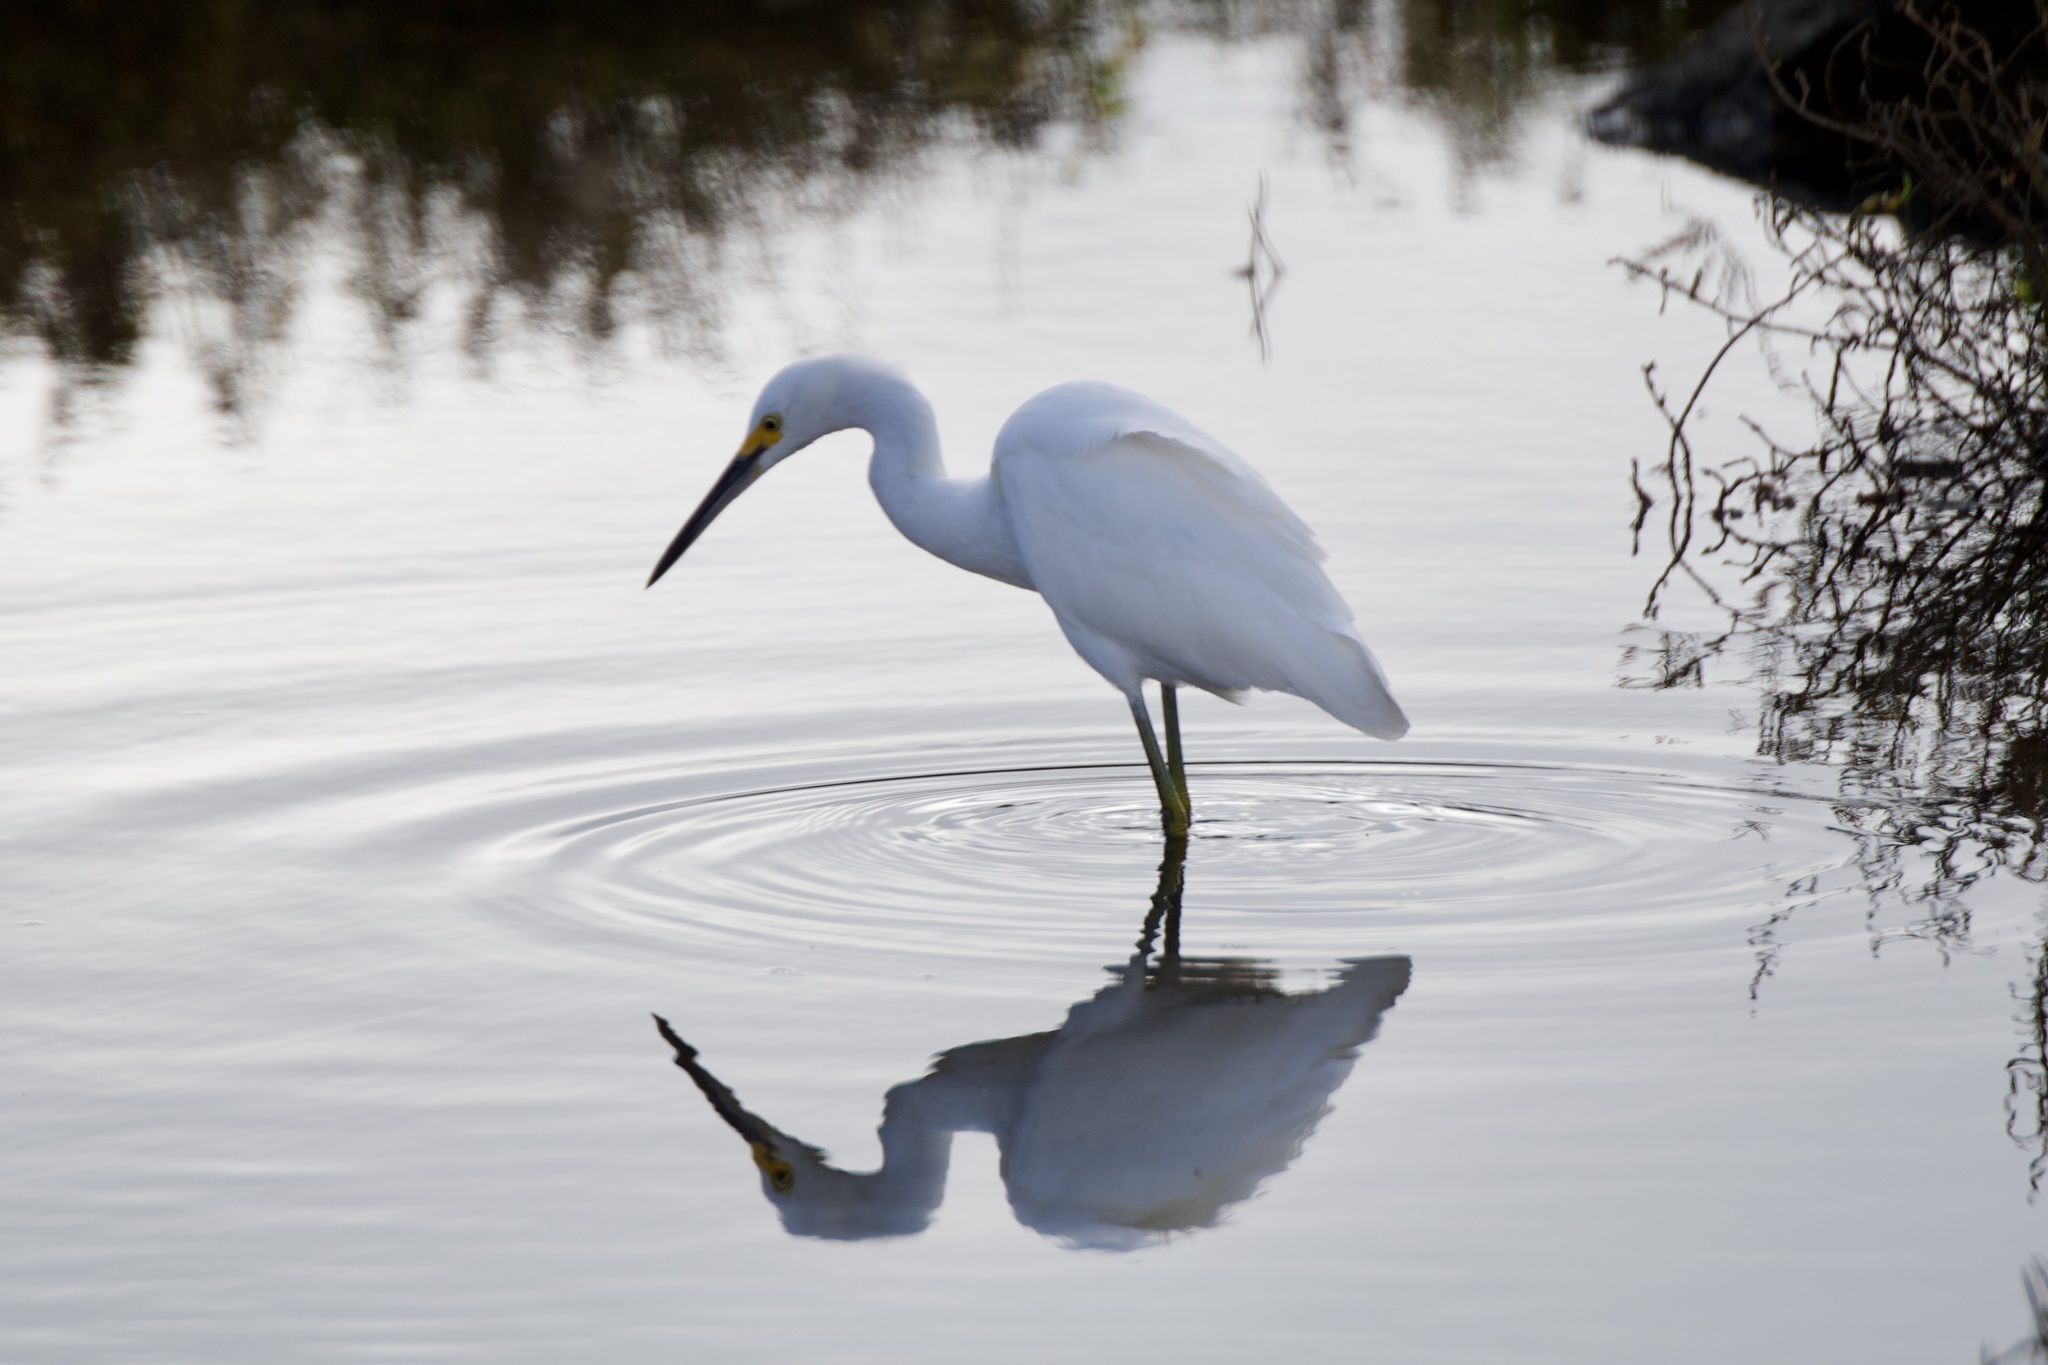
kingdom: Animalia
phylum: Chordata
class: Aves
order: Pelecaniformes
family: Ardeidae
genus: Egretta
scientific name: Egretta thula
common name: Snowy egret
